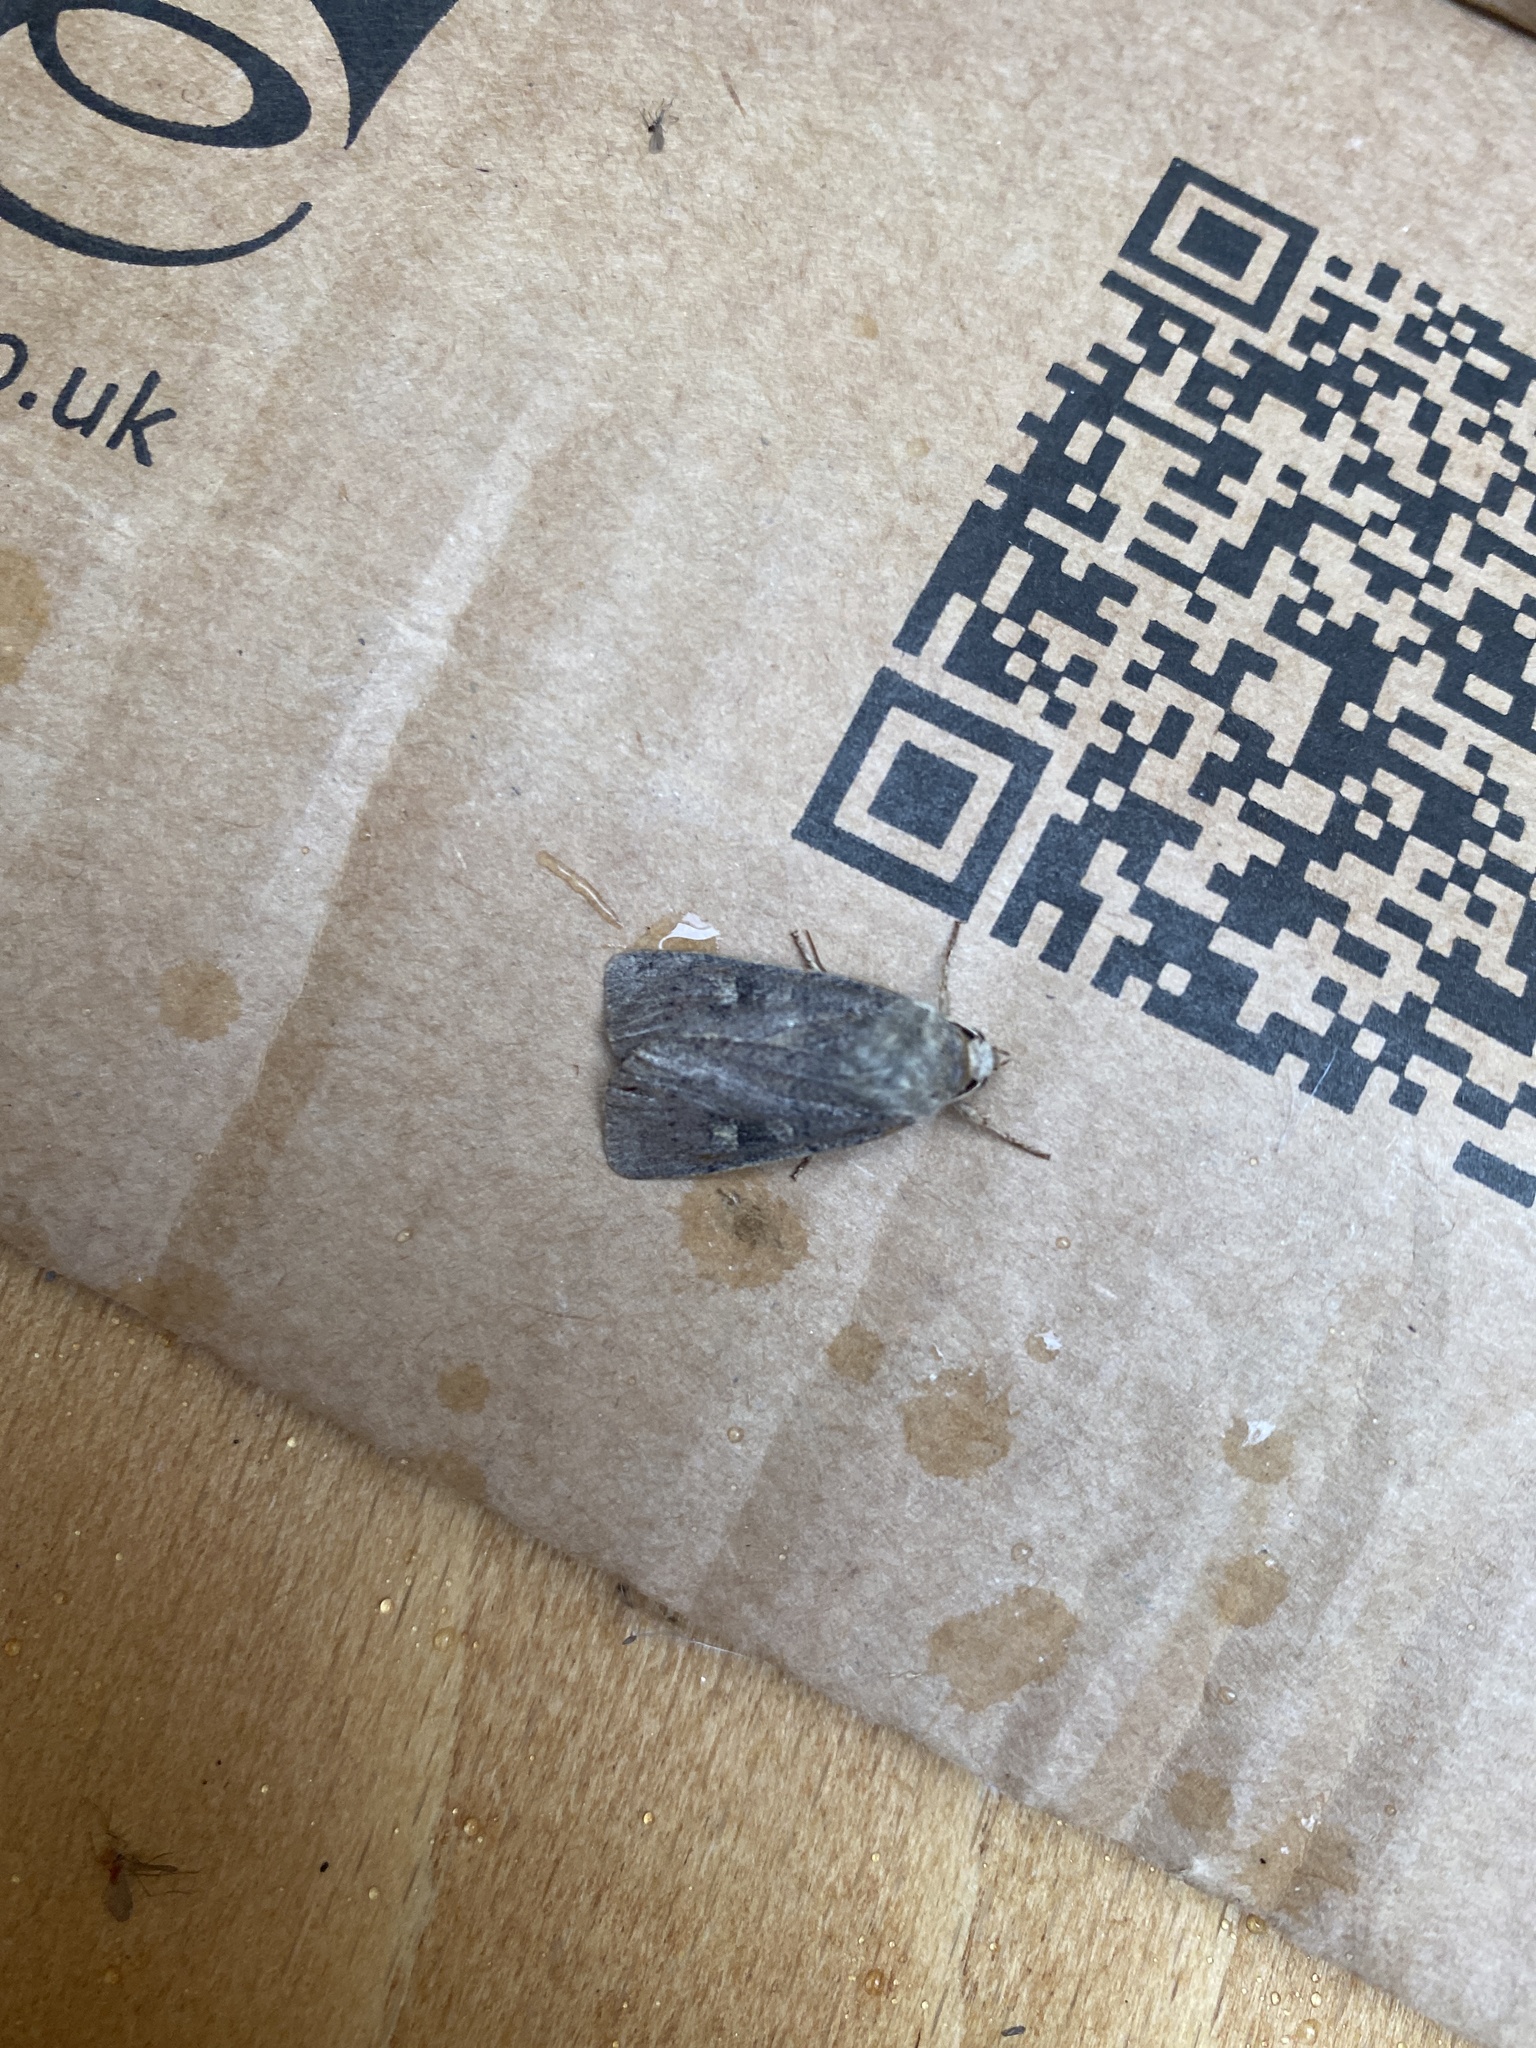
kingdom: Animalia
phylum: Arthropoda
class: Insecta
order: Lepidoptera
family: Noctuidae
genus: Xestia
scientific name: Xestia xanthographa
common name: Square-spot rustic
